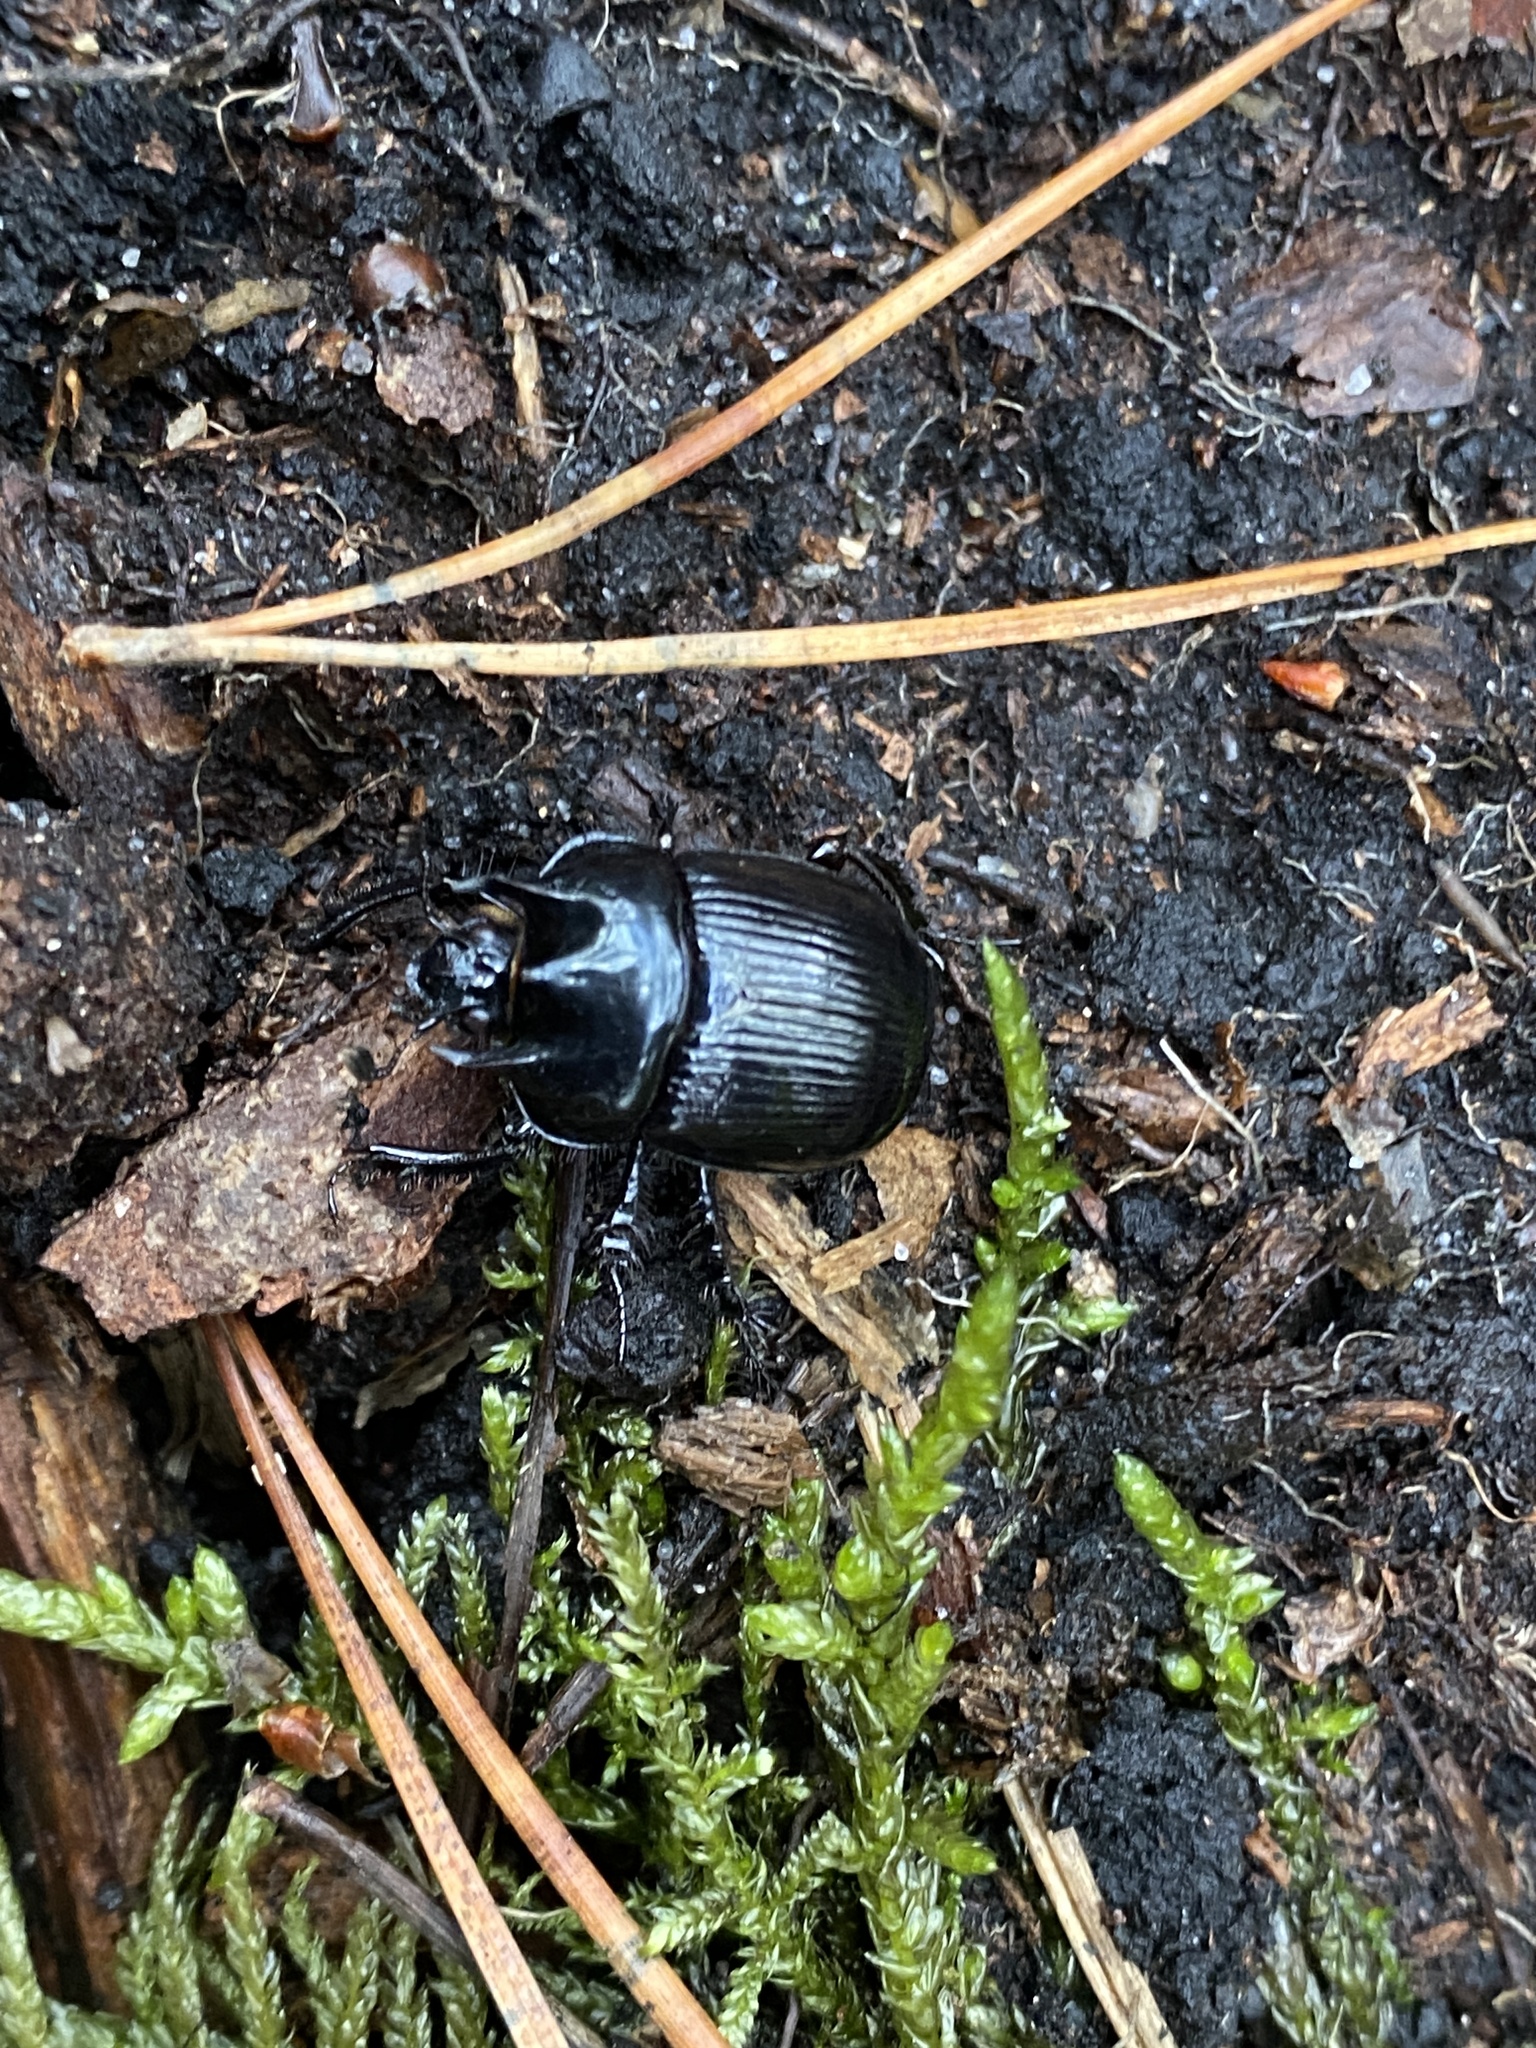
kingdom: Animalia
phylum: Arthropoda
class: Insecta
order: Coleoptera
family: Geotrupidae
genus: Typhaeus
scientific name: Typhaeus typhoeus
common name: Minotaur beetle
